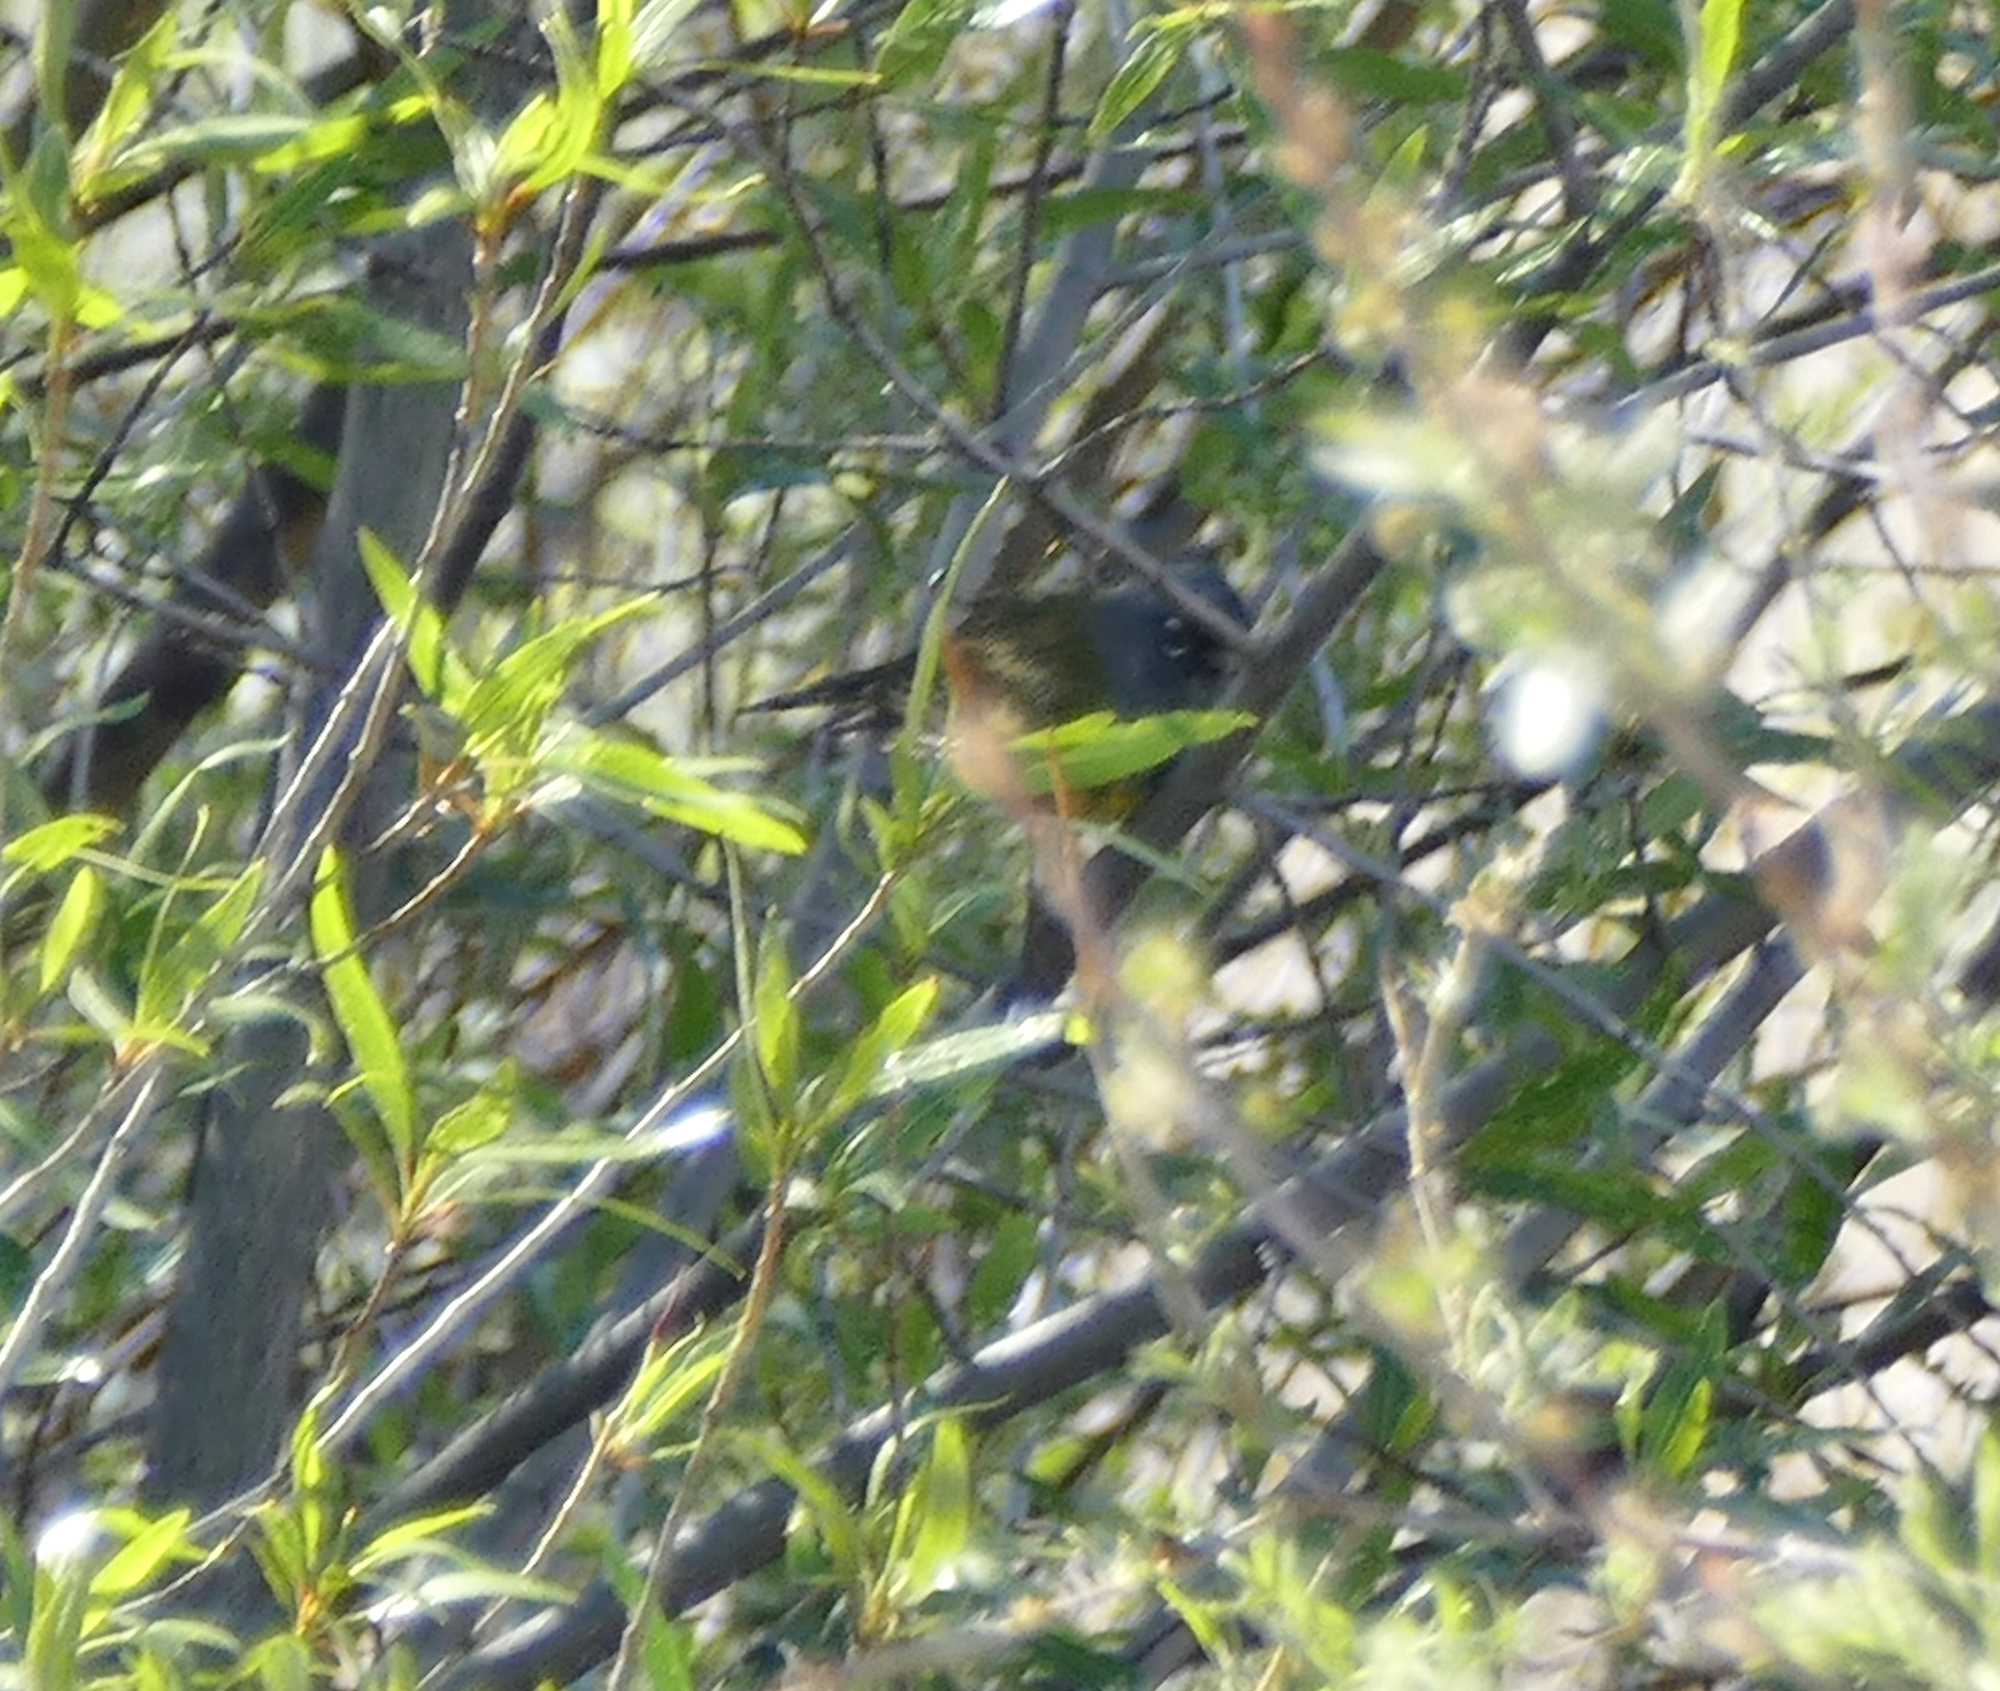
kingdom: Animalia
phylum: Chordata
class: Aves
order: Passeriformes
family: Parulidae
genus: Geothlypis
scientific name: Geothlypis tolmiei
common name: Macgillivray's warbler
